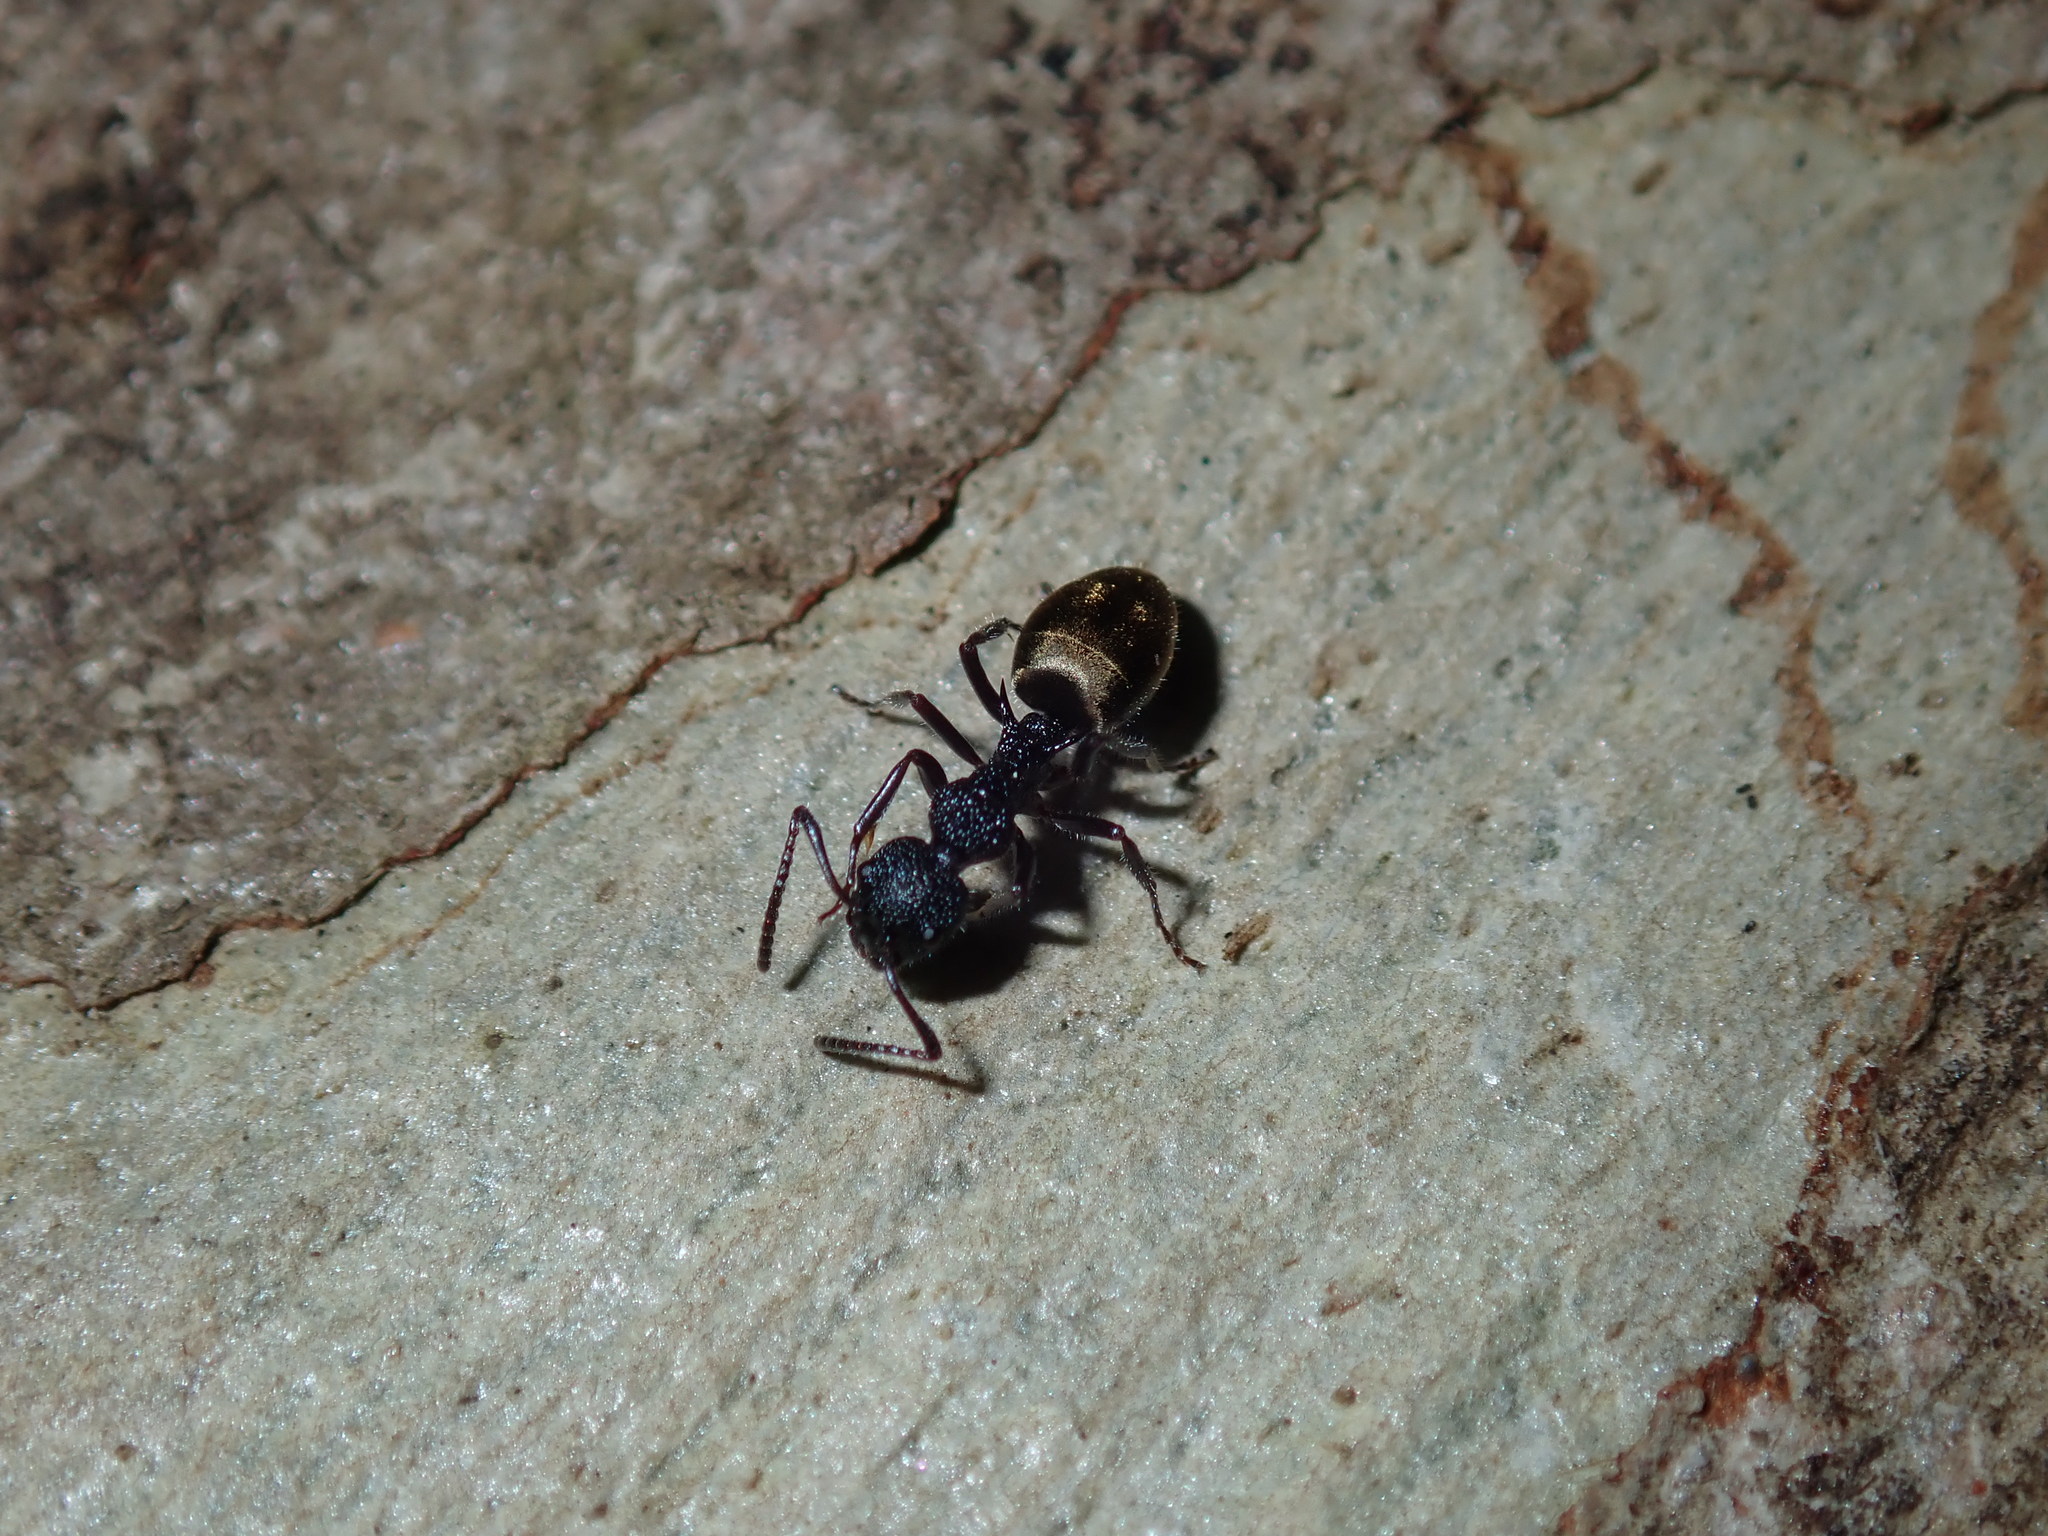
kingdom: Animalia
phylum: Arthropoda
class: Insecta
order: Hymenoptera
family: Formicidae
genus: Dolichoderus
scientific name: Dolichoderus inferus
